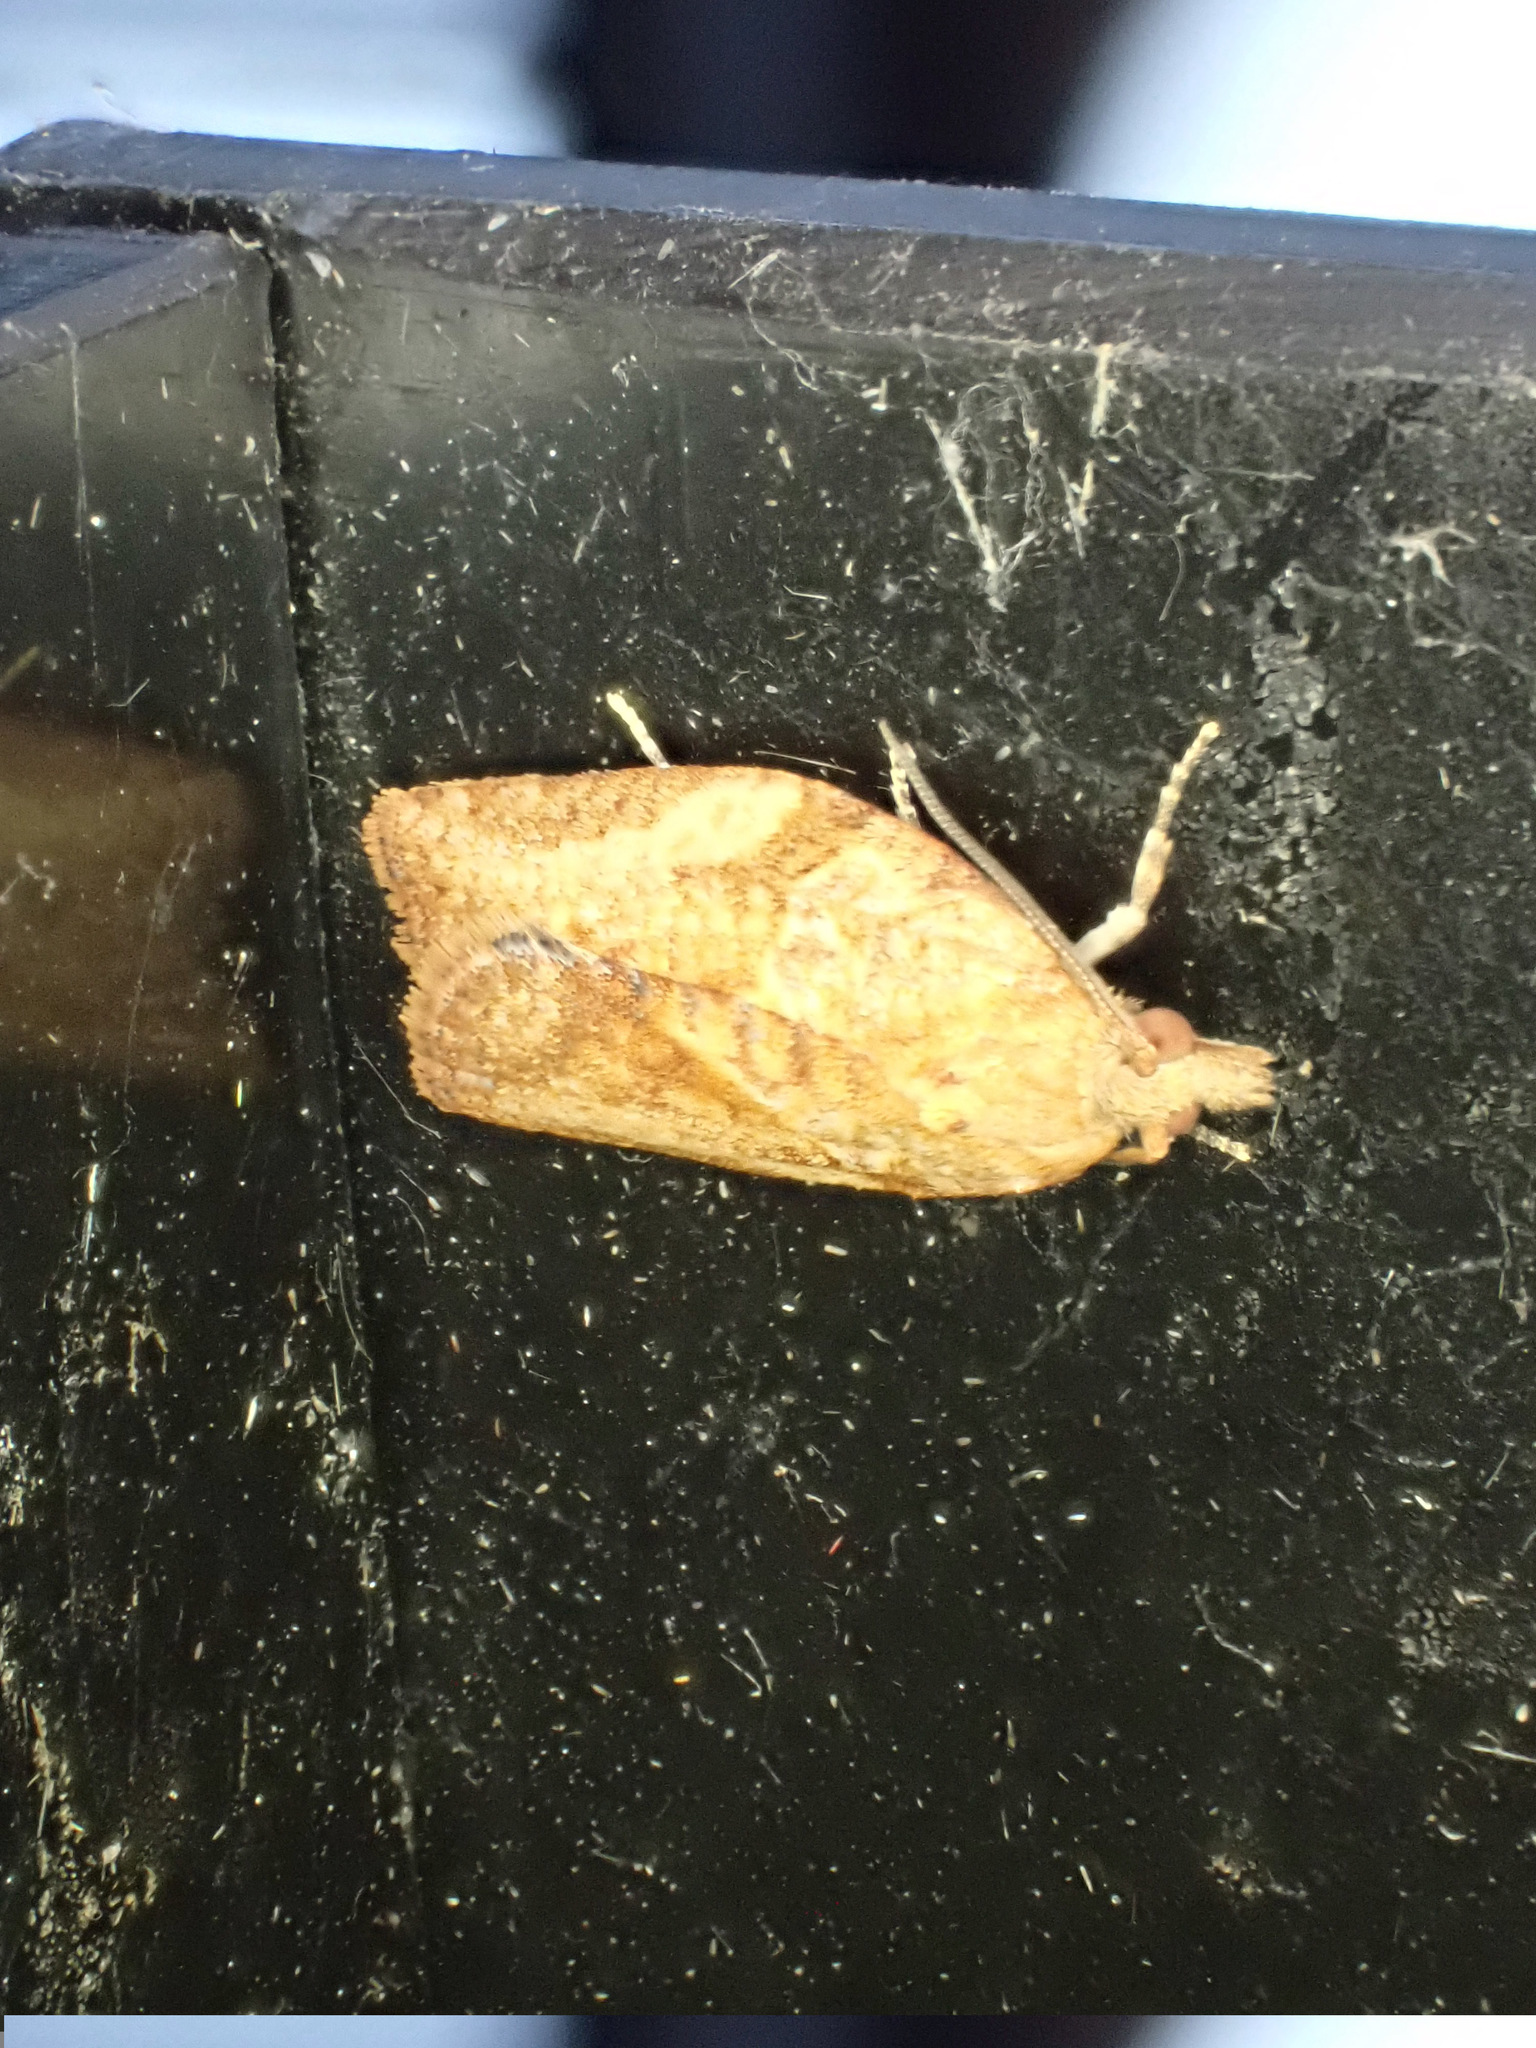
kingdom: Animalia
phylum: Arthropoda
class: Insecta
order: Lepidoptera
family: Tortricidae
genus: Epiphyas
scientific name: Epiphyas postvittana
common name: Light brown apple moth
